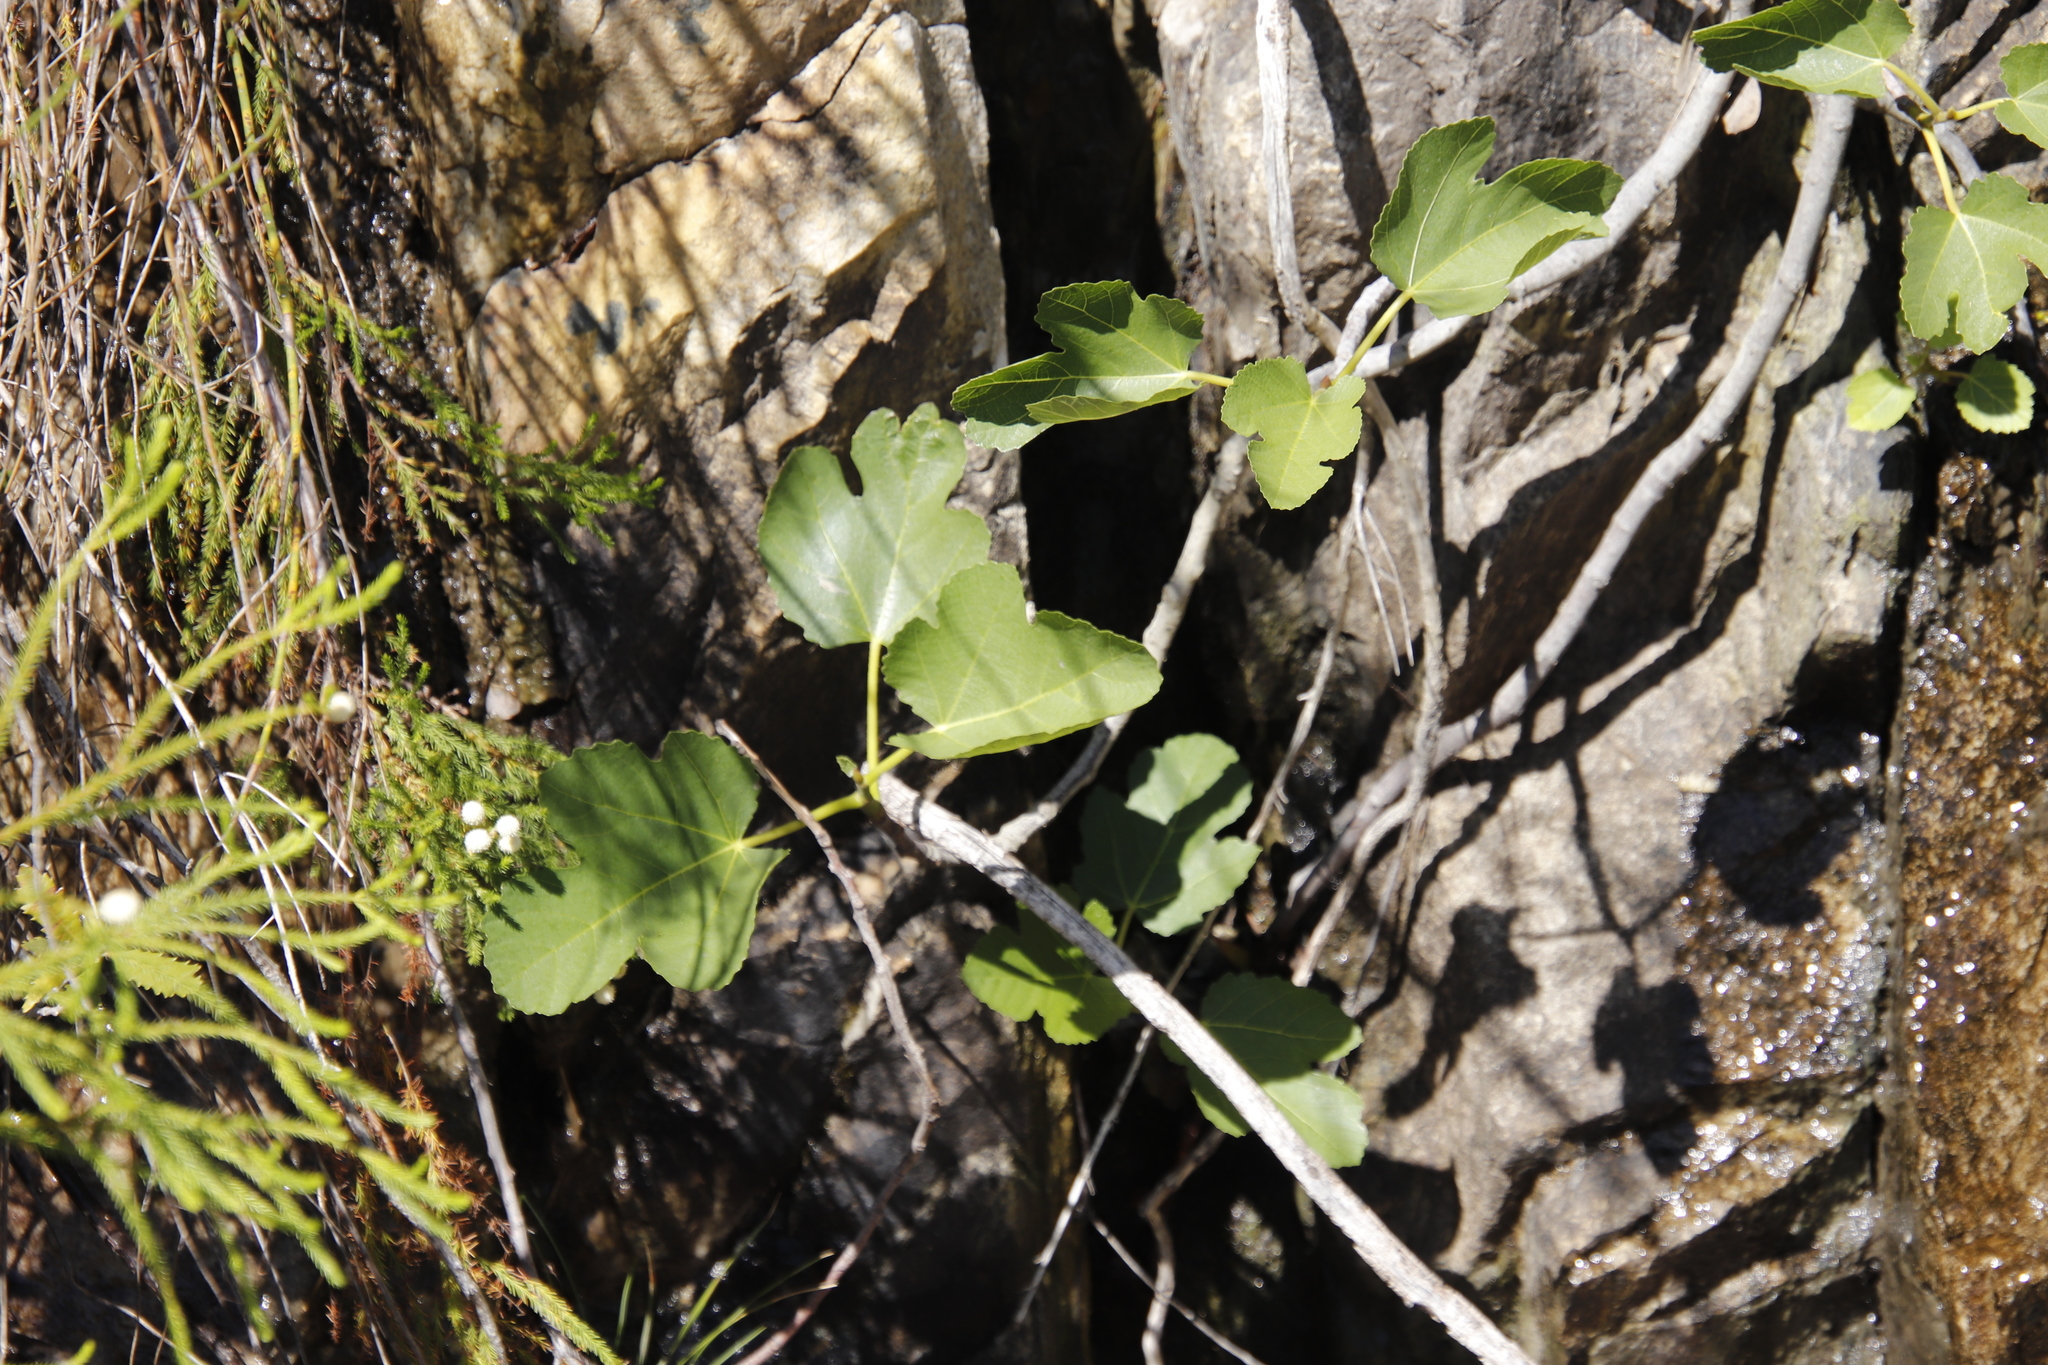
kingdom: Plantae
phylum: Tracheophyta
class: Magnoliopsida
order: Rosales
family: Moraceae
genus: Ficus
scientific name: Ficus carica
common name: Fig
